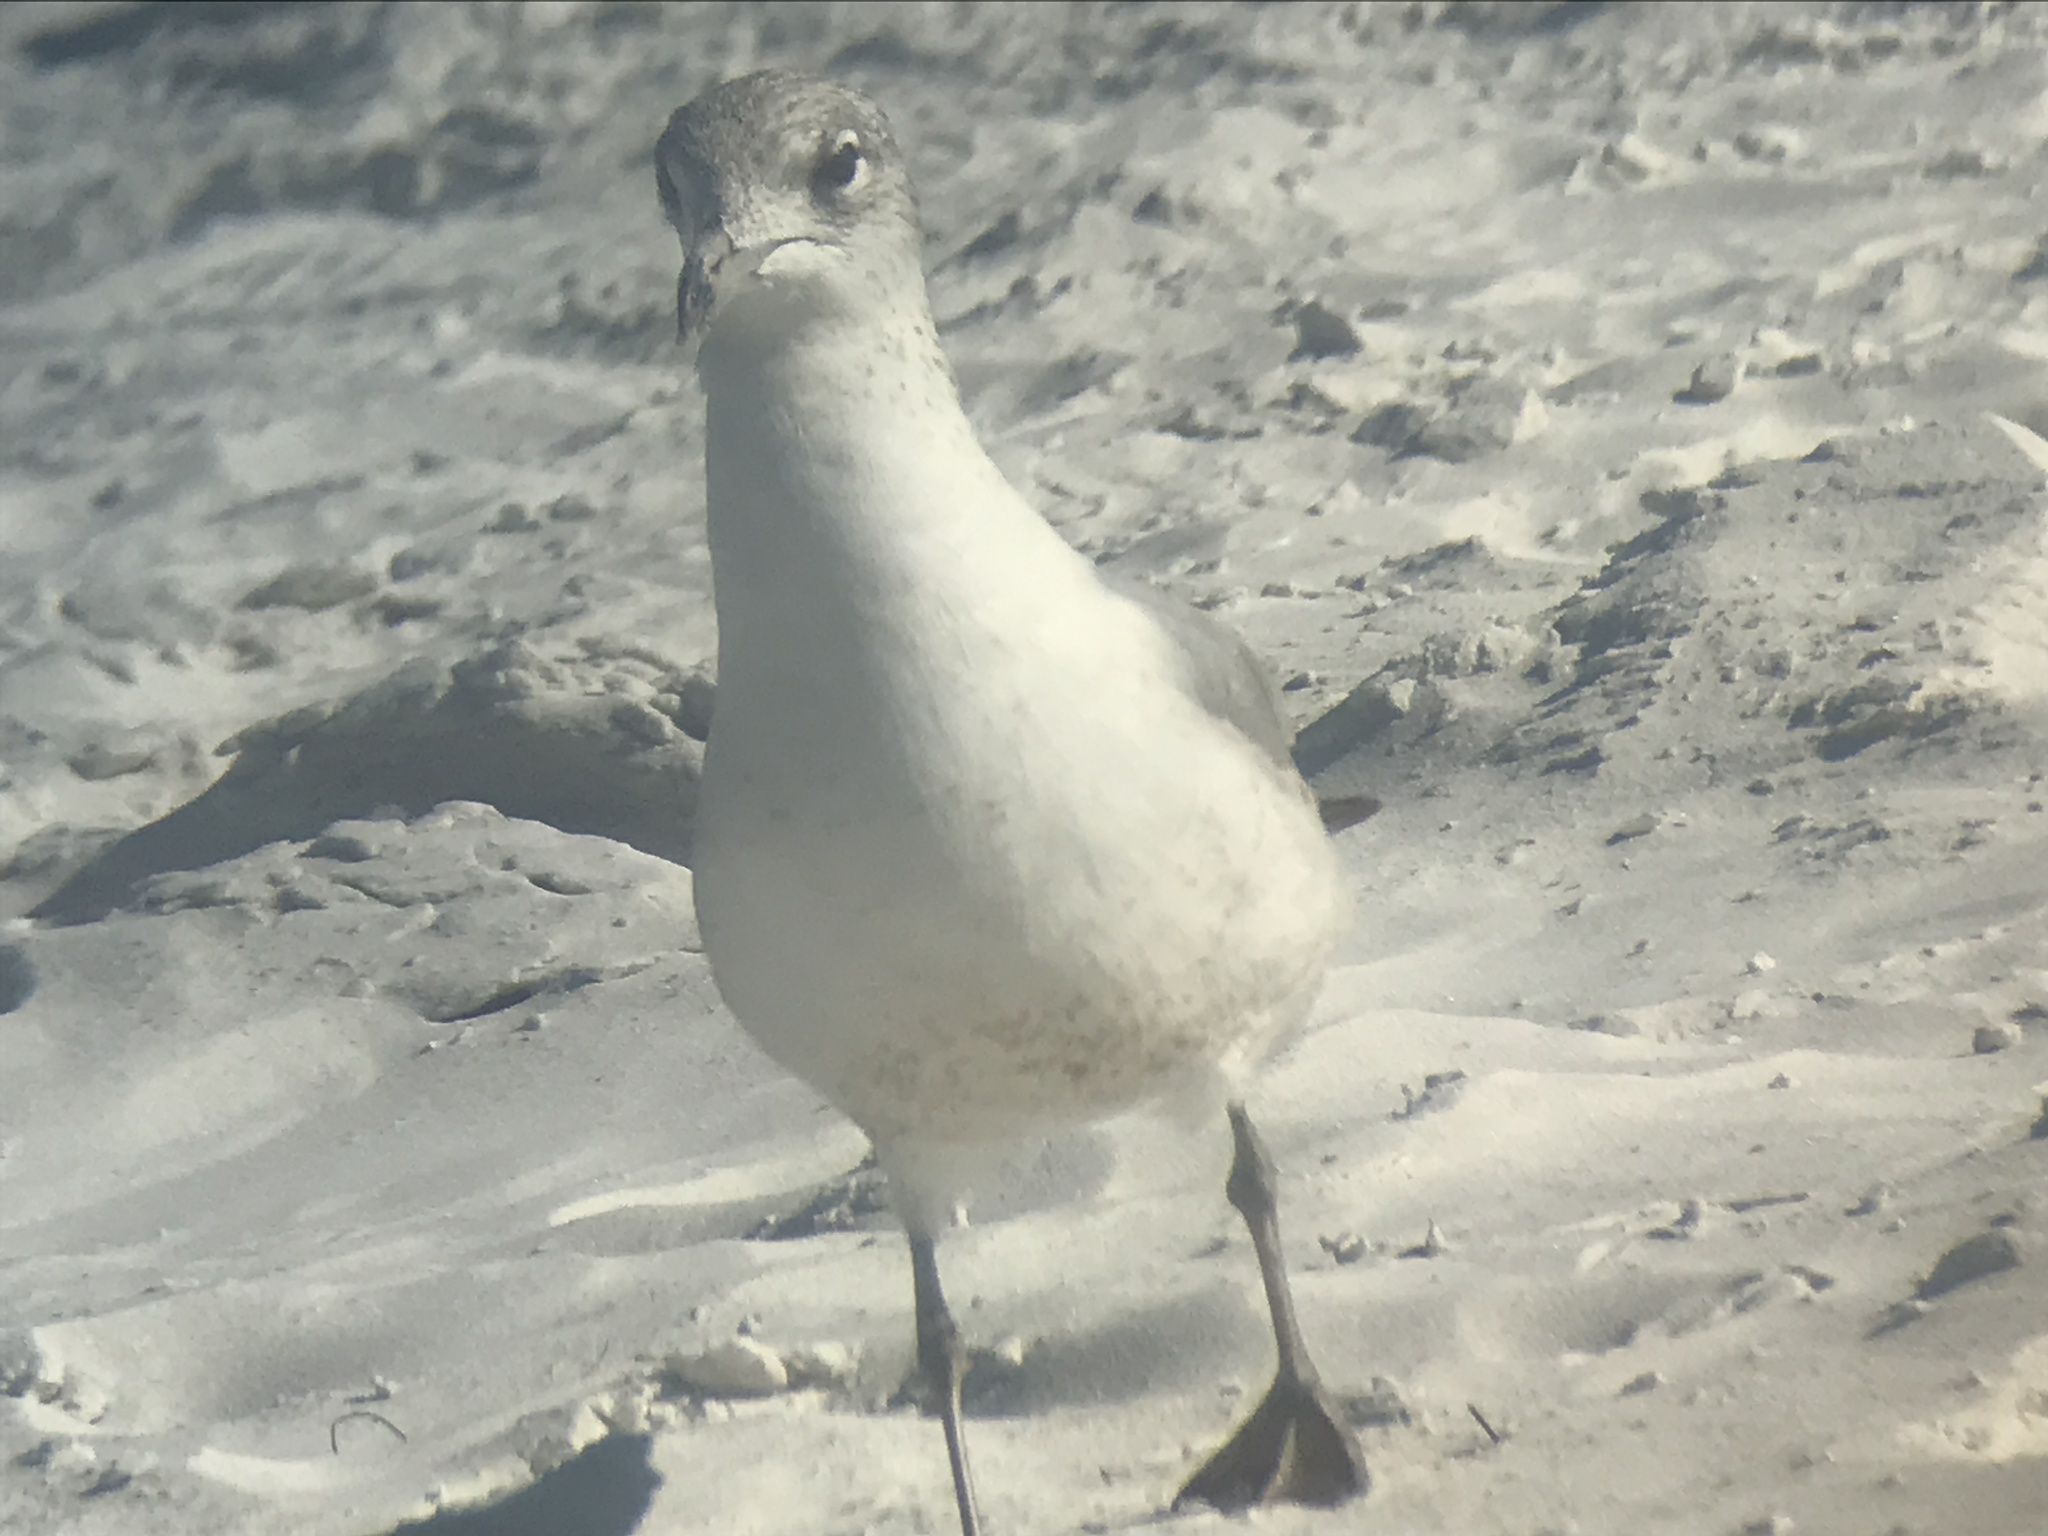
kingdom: Animalia
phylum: Chordata
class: Aves
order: Charadriiformes
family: Laridae
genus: Larus
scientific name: Larus delawarensis
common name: Ring-billed gull
